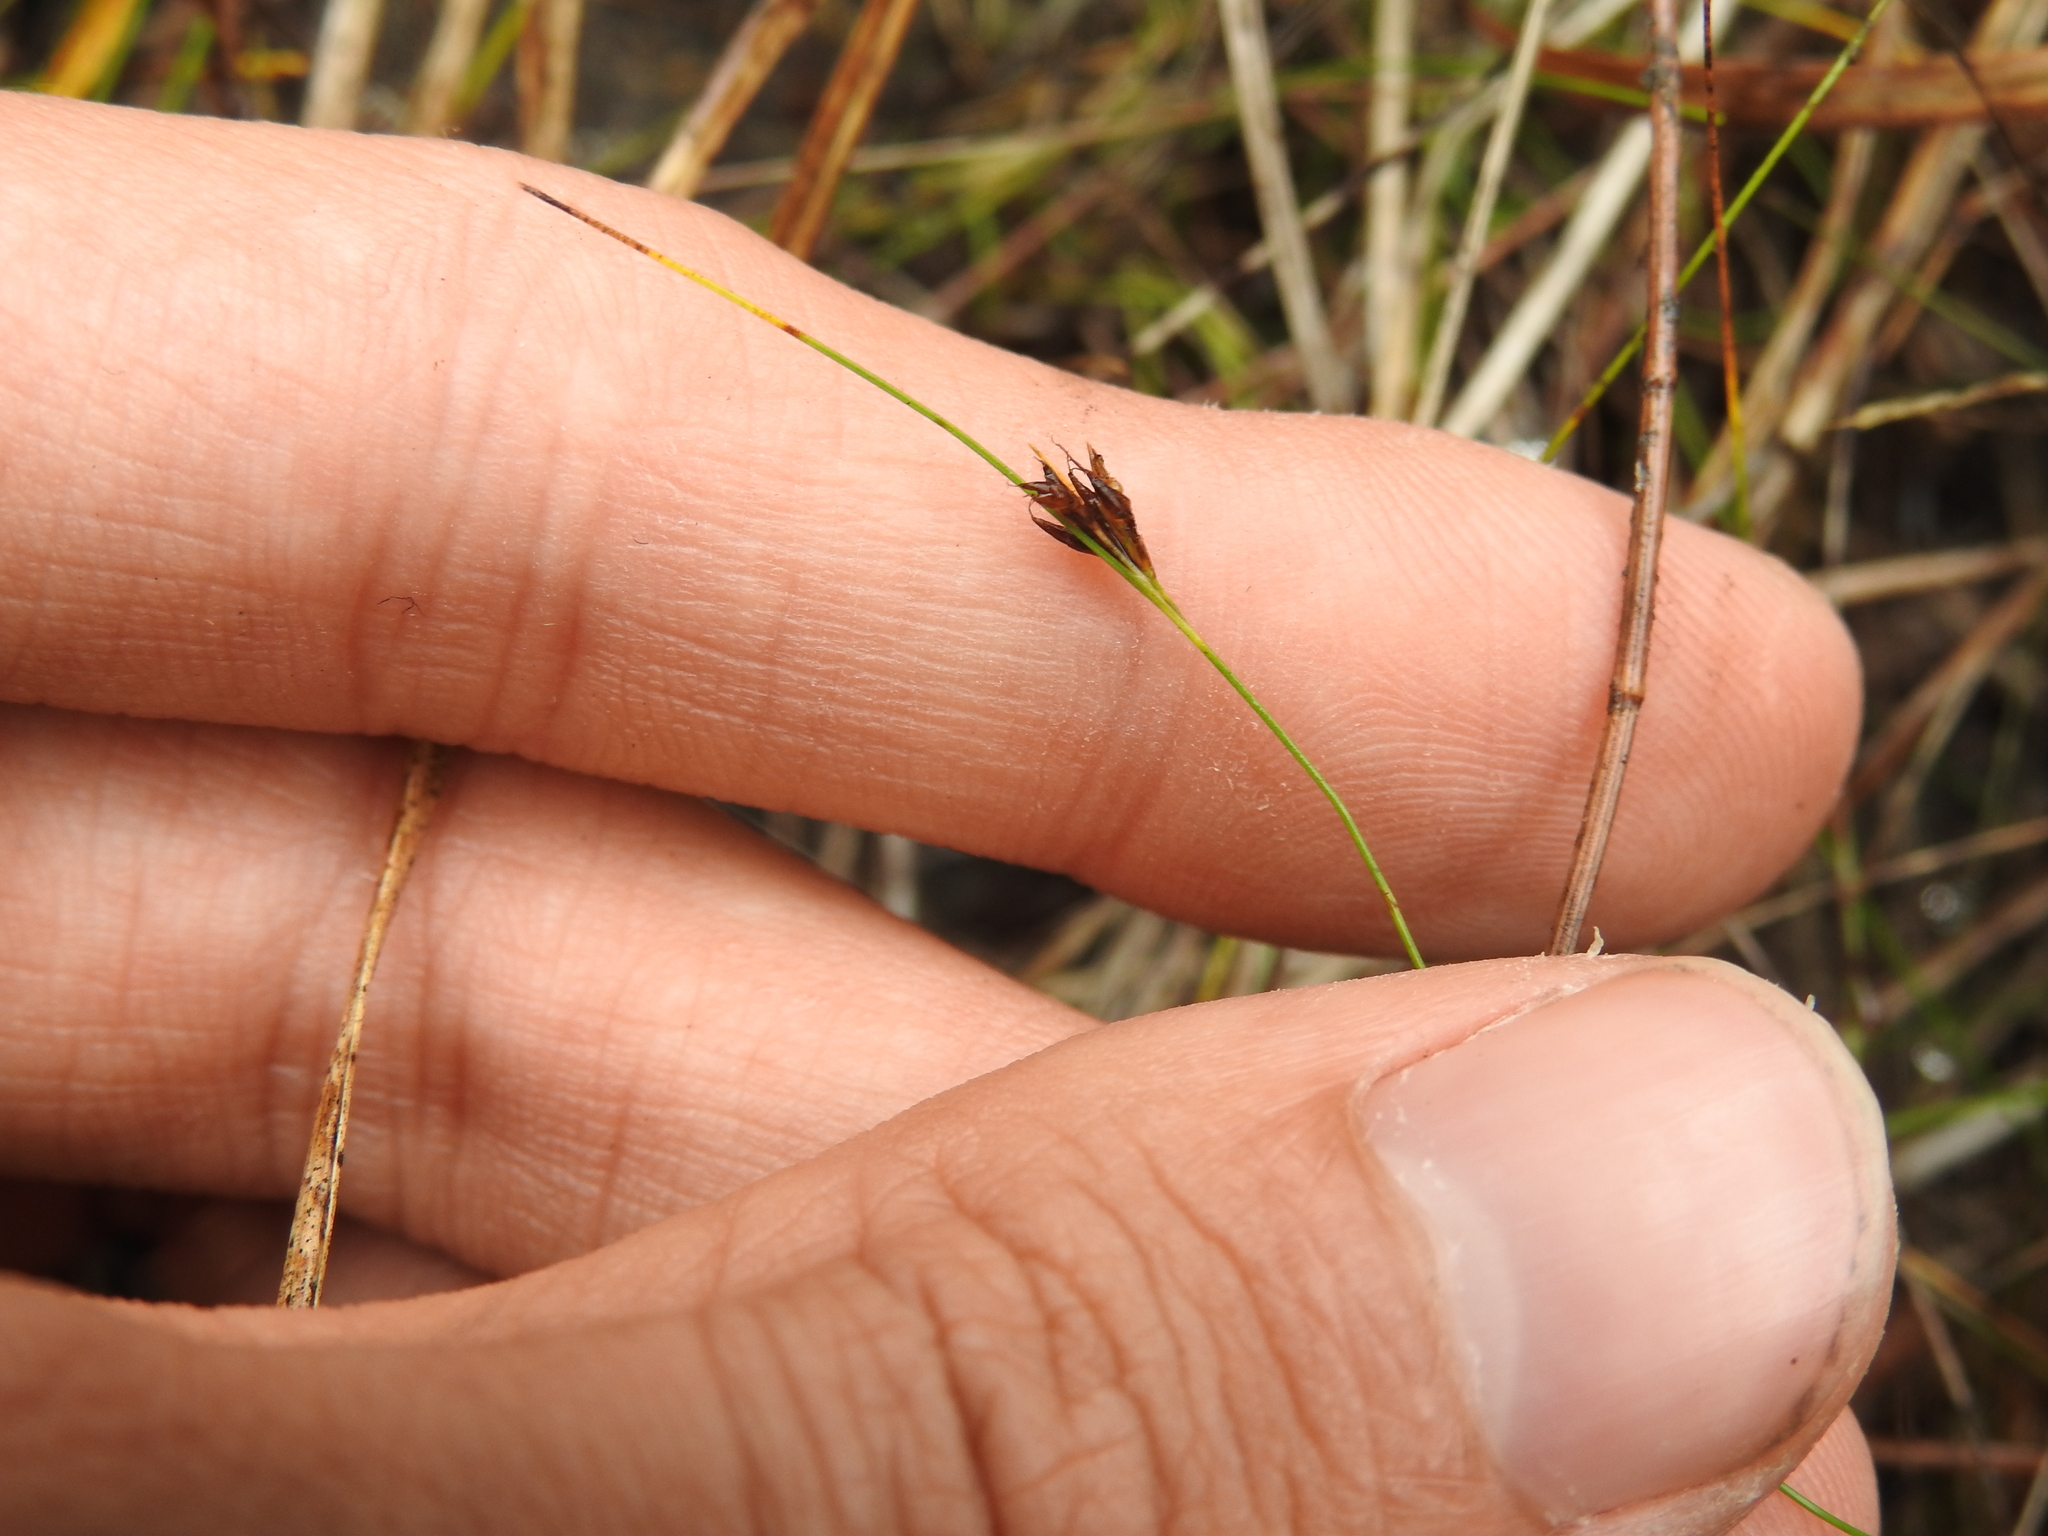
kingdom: Plantae
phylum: Tracheophyta
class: Liliopsida
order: Poales
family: Cyperaceae
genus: Rhynchospora
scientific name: Rhynchospora divergens
